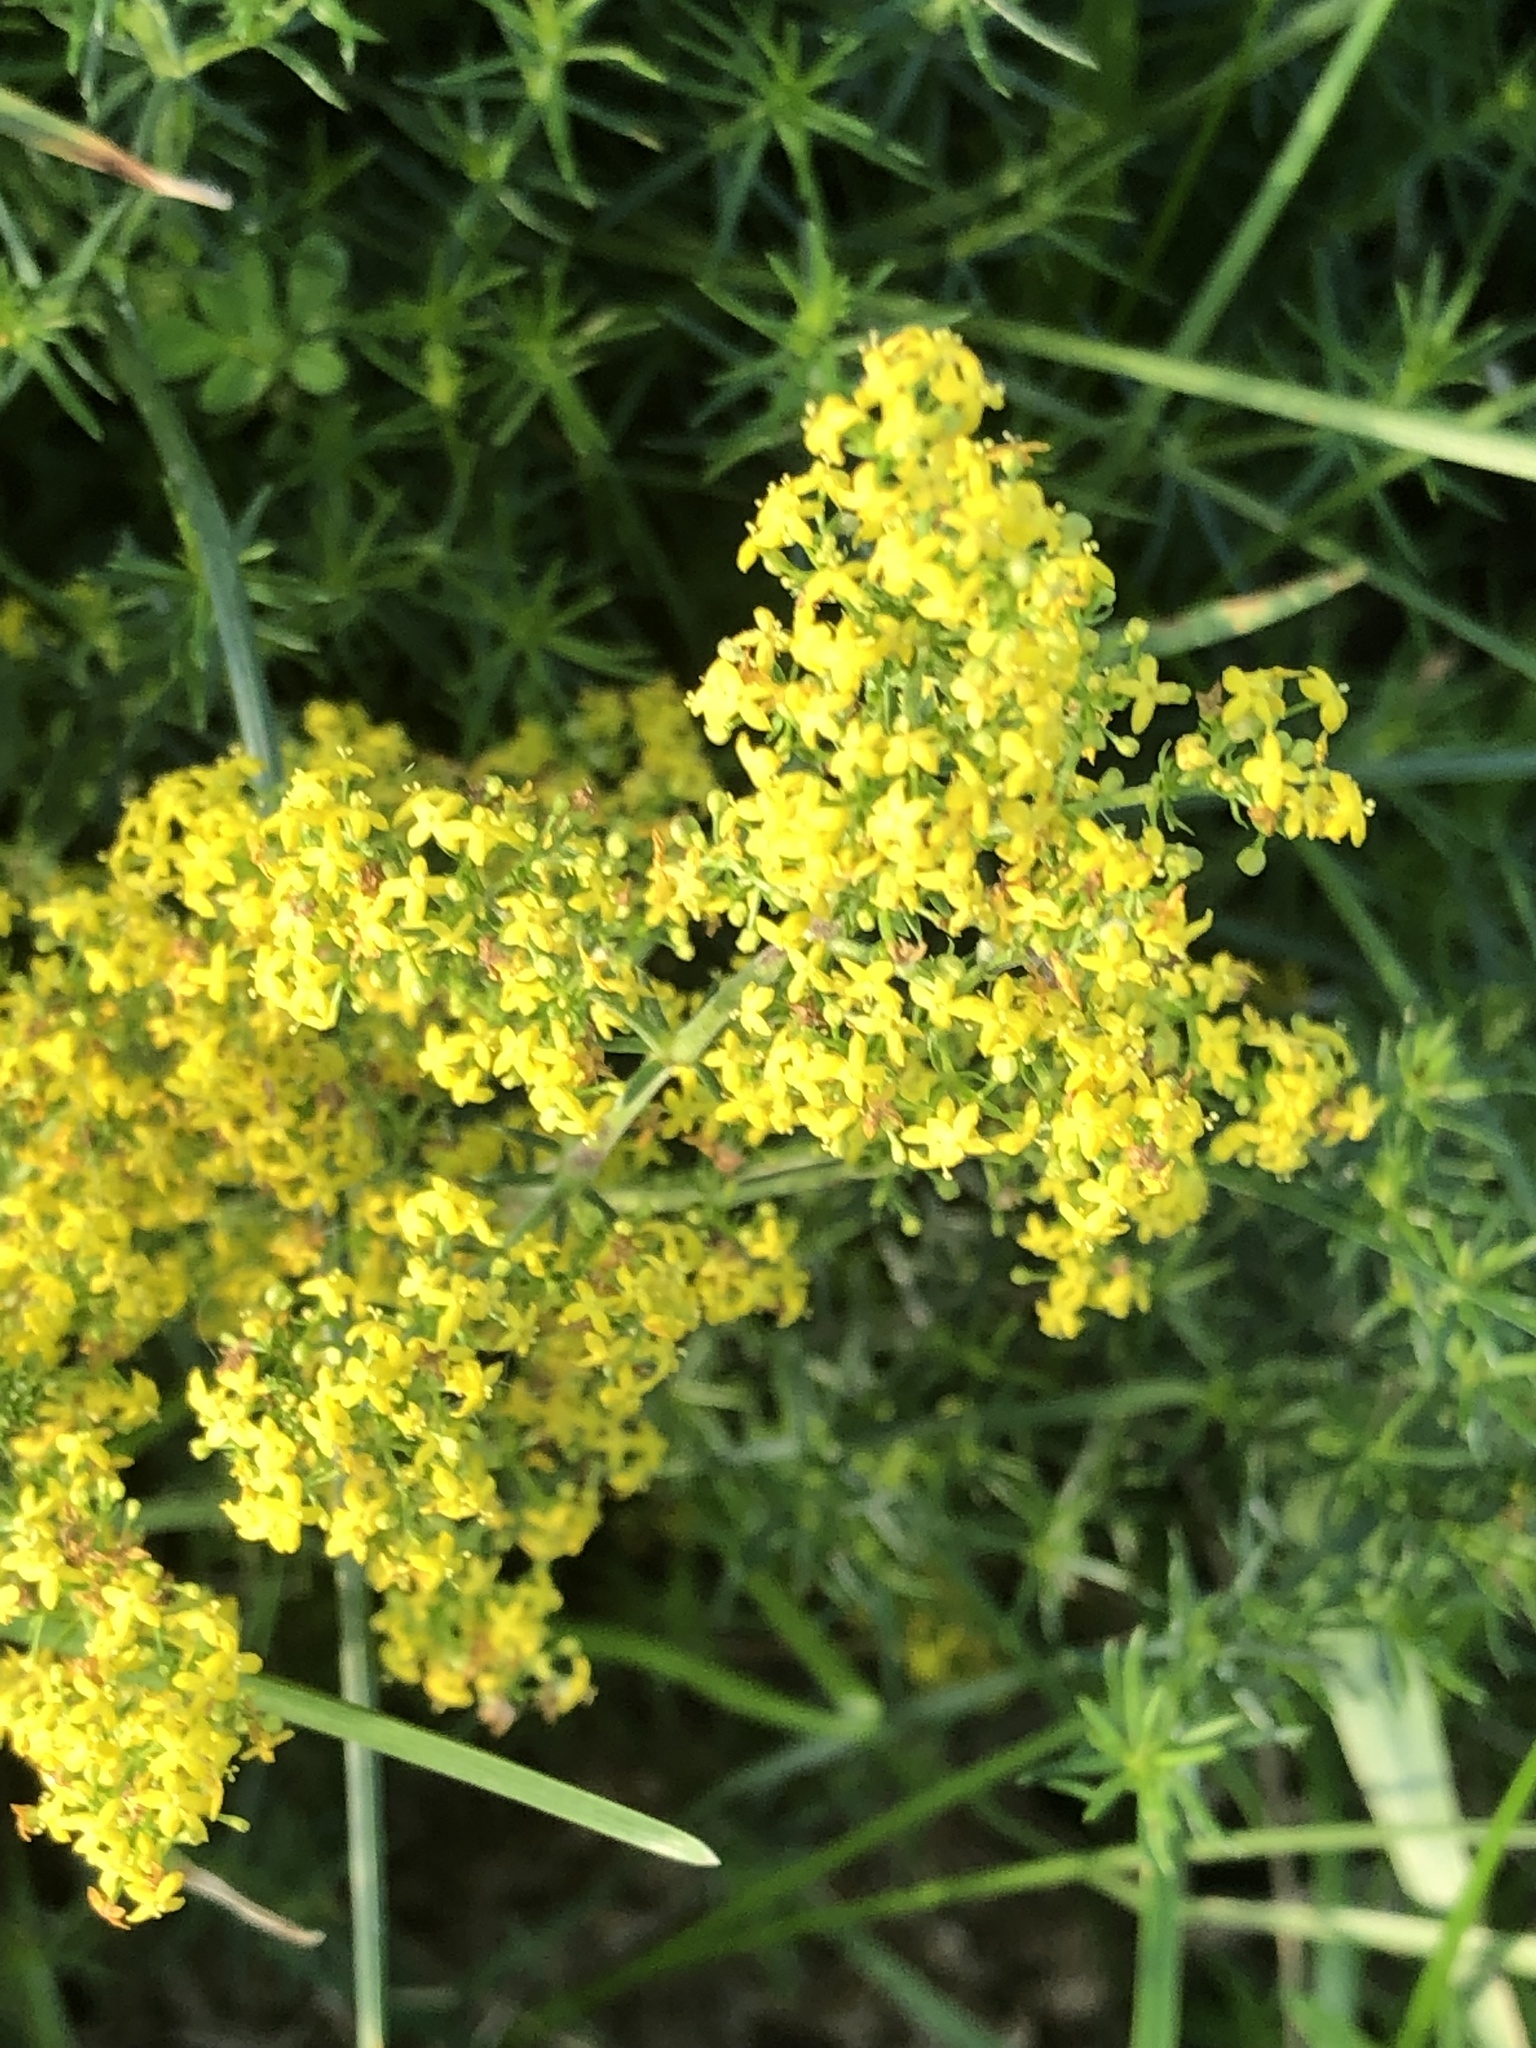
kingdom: Plantae
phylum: Tracheophyta
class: Magnoliopsida
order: Gentianales
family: Rubiaceae
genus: Galium
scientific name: Galium verum
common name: Lady's bedstraw
